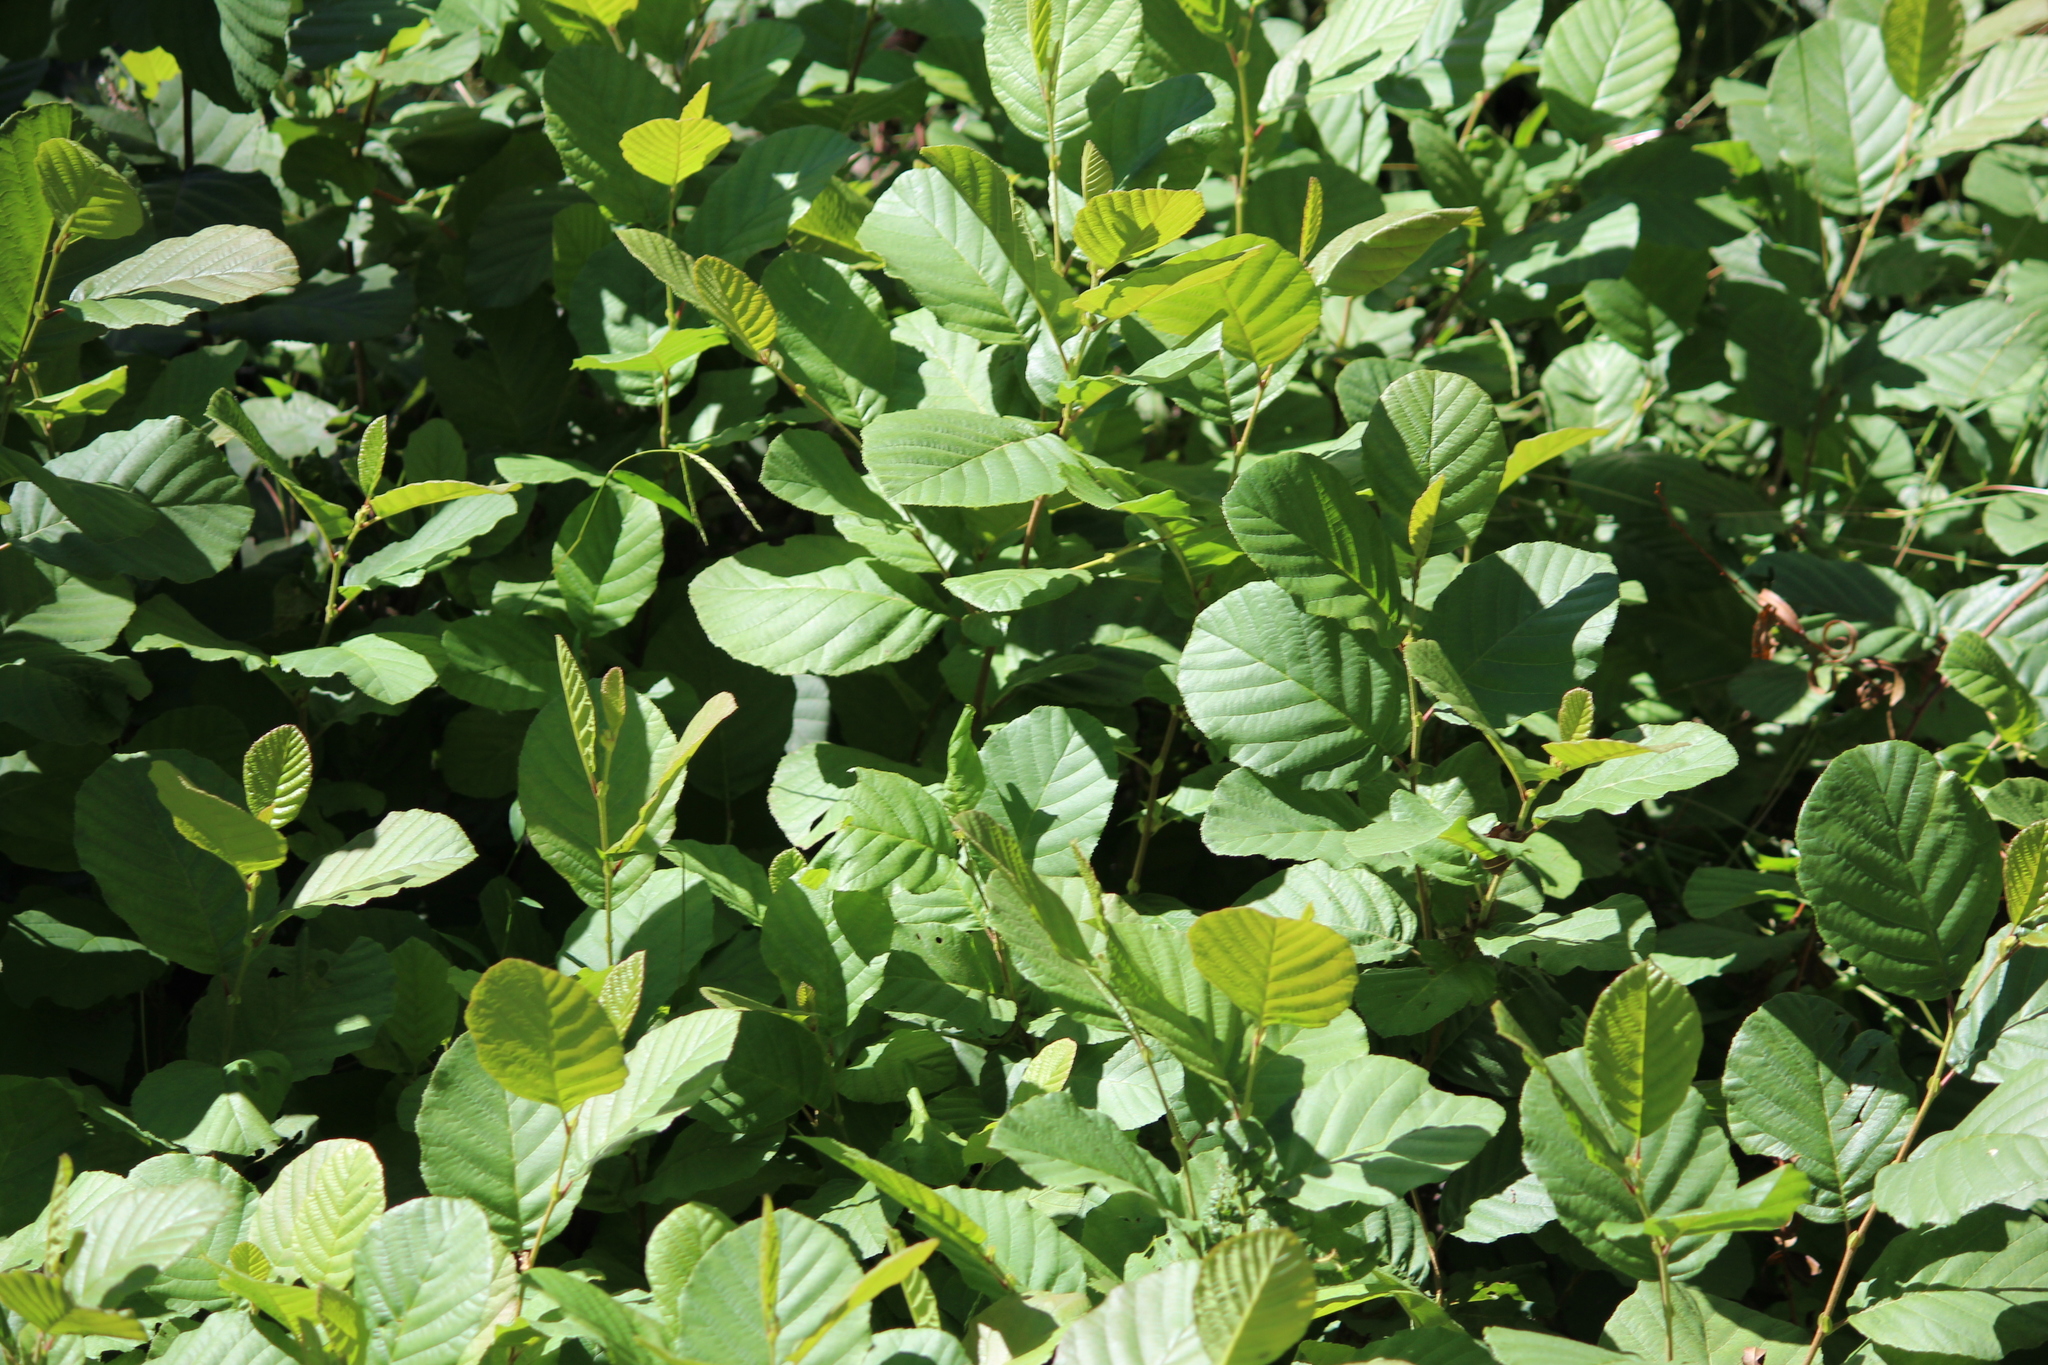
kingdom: Plantae
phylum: Tracheophyta
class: Magnoliopsida
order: Fagales
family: Betulaceae
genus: Alnus
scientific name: Alnus serrulata
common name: Hazel alder
